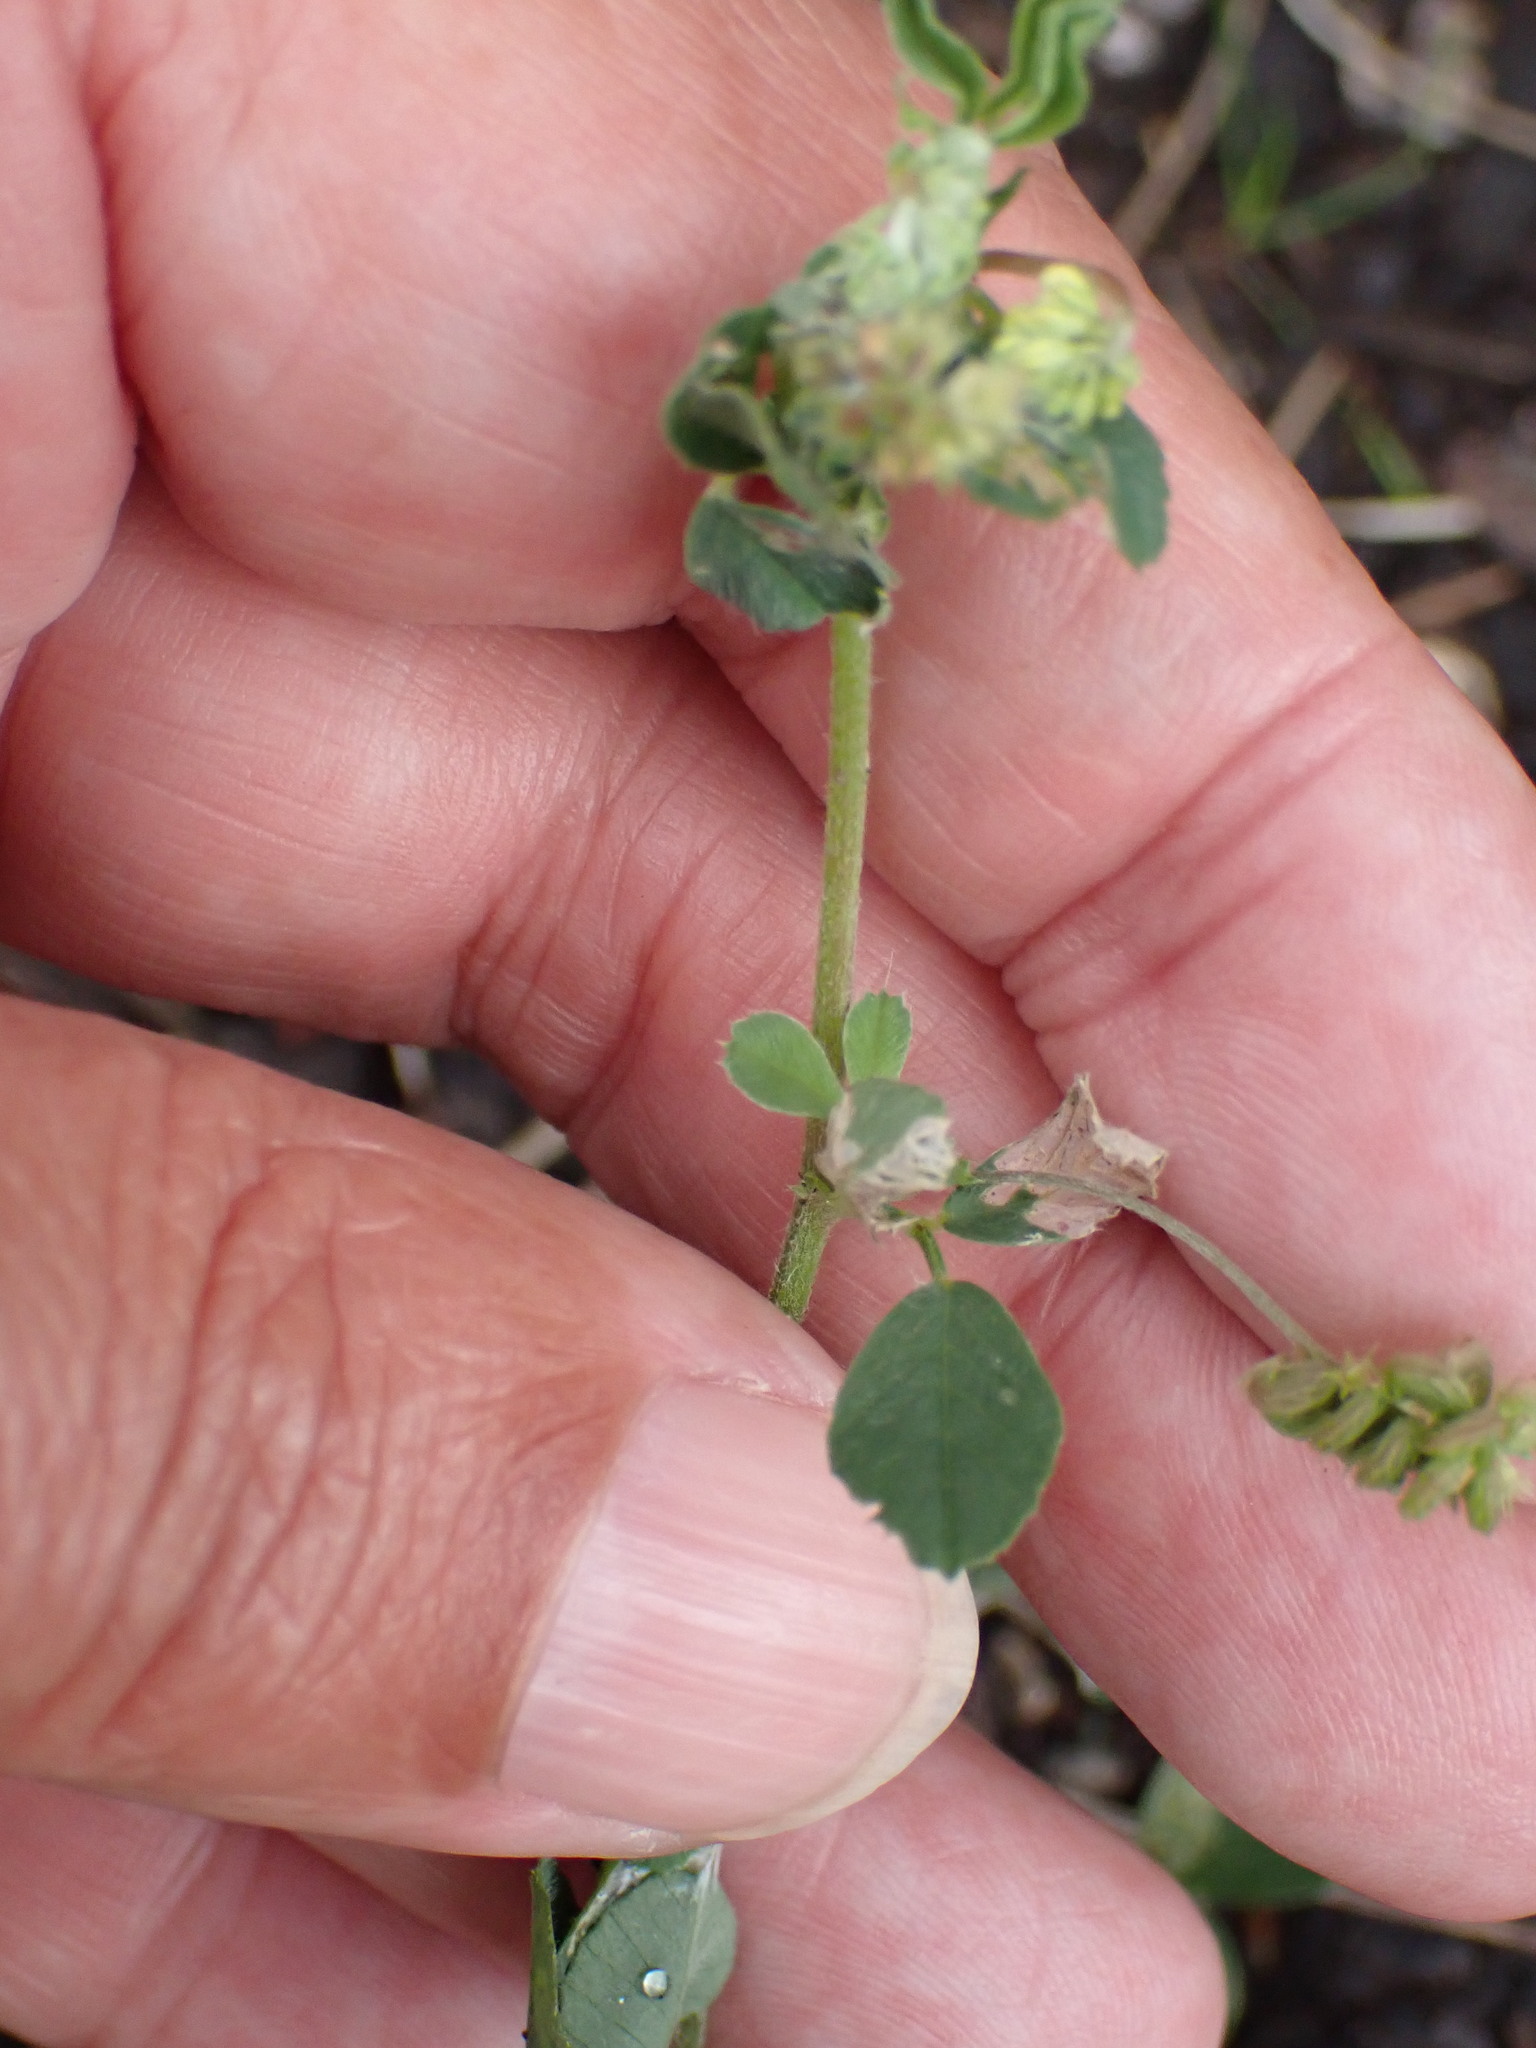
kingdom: Plantae
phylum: Tracheophyta
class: Magnoliopsida
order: Fabales
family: Fabaceae
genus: Medicago
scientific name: Medicago lupulina
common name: Black medick
